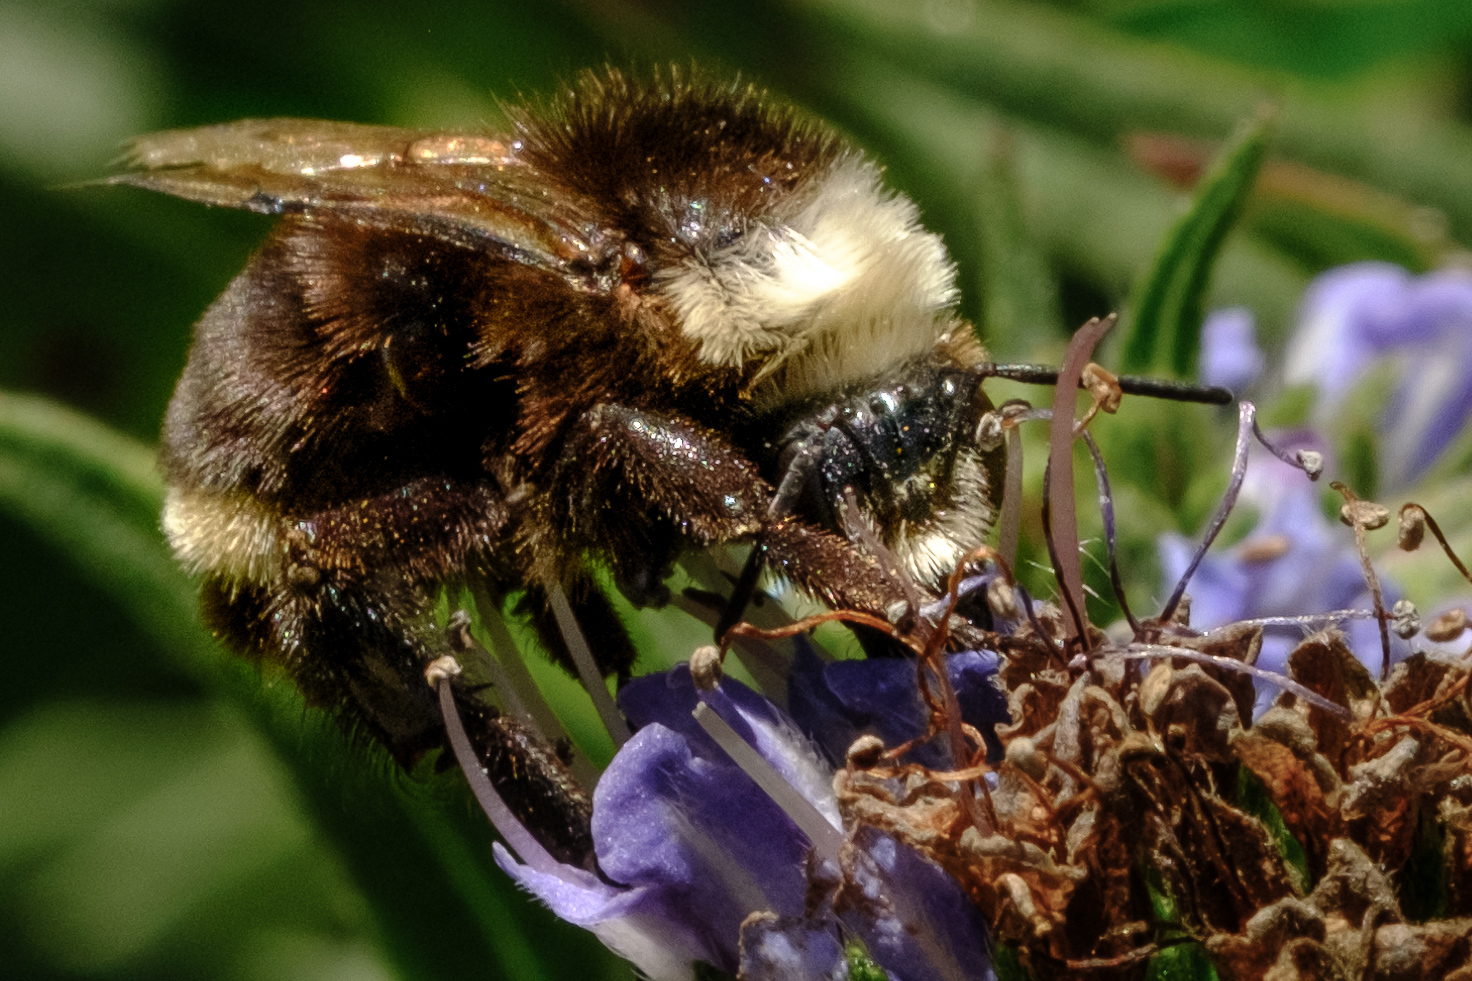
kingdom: Animalia
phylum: Arthropoda
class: Insecta
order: Hymenoptera
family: Apidae
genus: Bombus
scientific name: Bombus vosnesenskii
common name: Vosnesensky bumble bee
